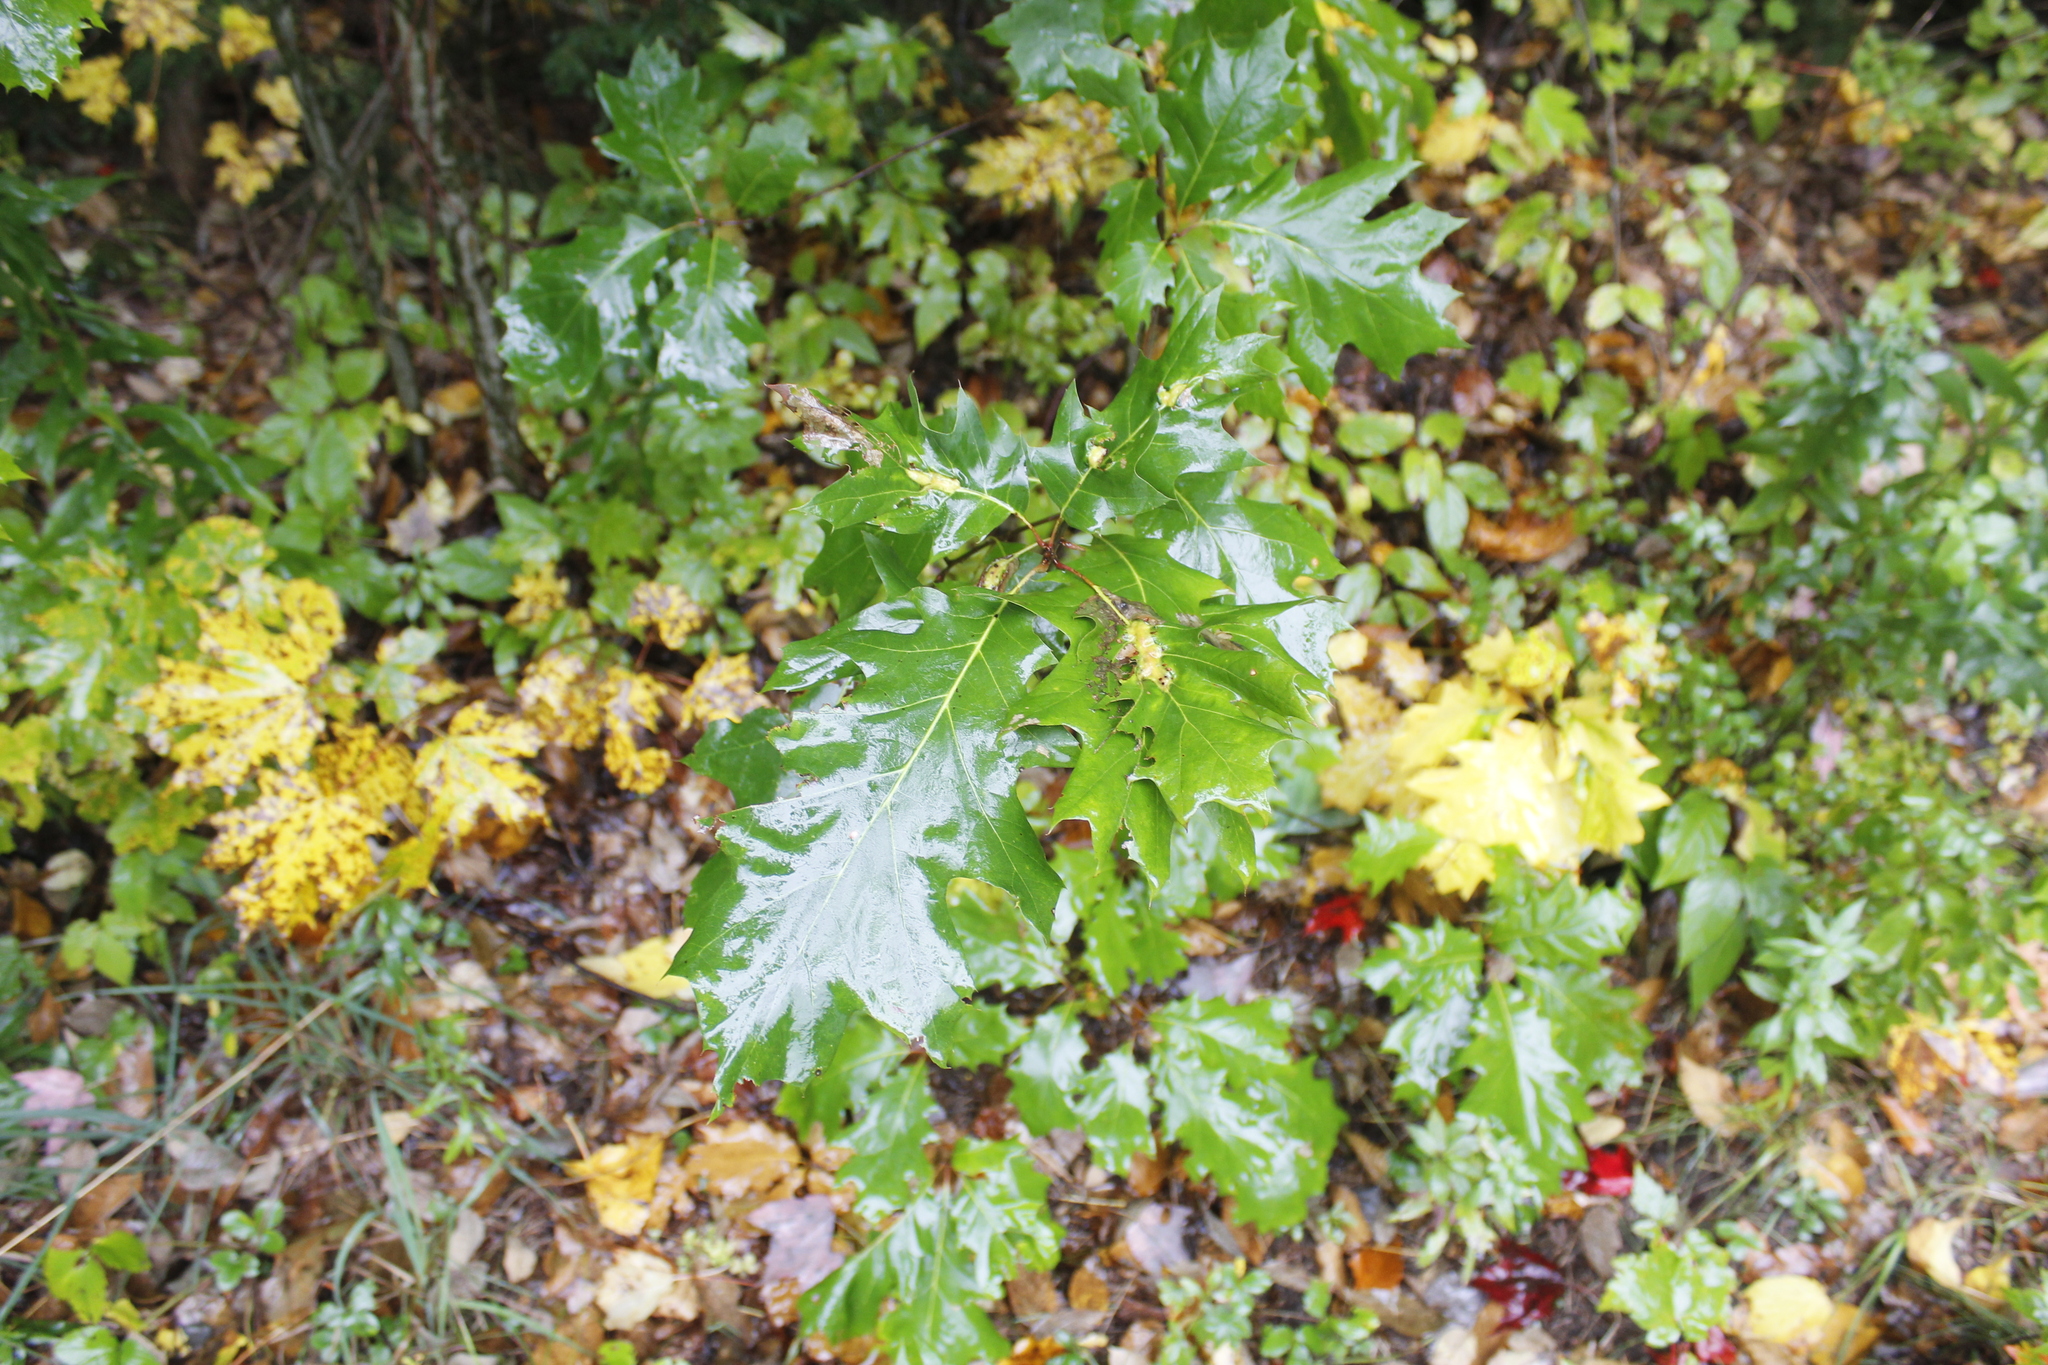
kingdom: Plantae
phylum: Tracheophyta
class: Magnoliopsida
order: Fagales
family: Fagaceae
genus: Quercus
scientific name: Quercus rubra
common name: Red oak
